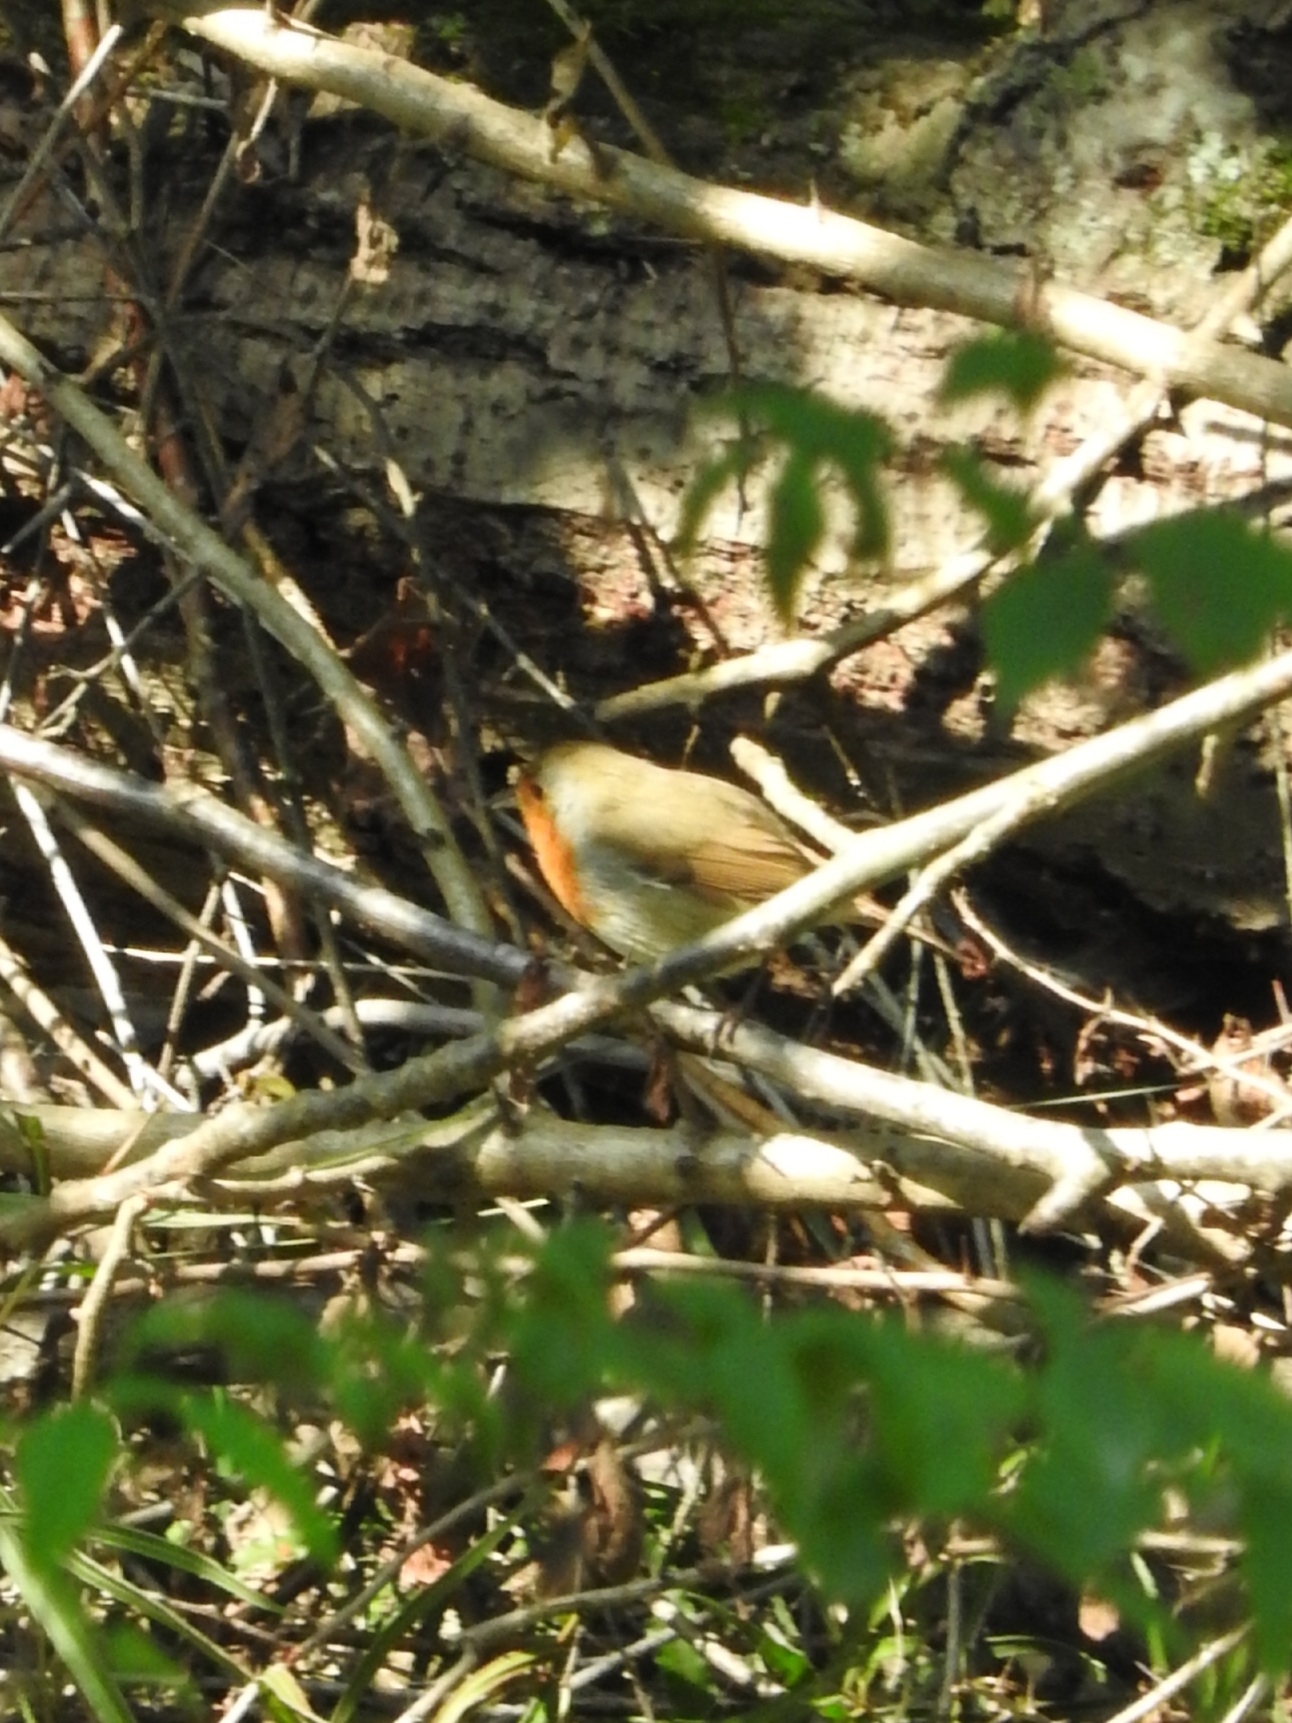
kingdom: Animalia
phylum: Chordata
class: Aves
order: Passeriformes
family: Muscicapidae
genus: Erithacus
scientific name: Erithacus rubecula
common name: European robin
